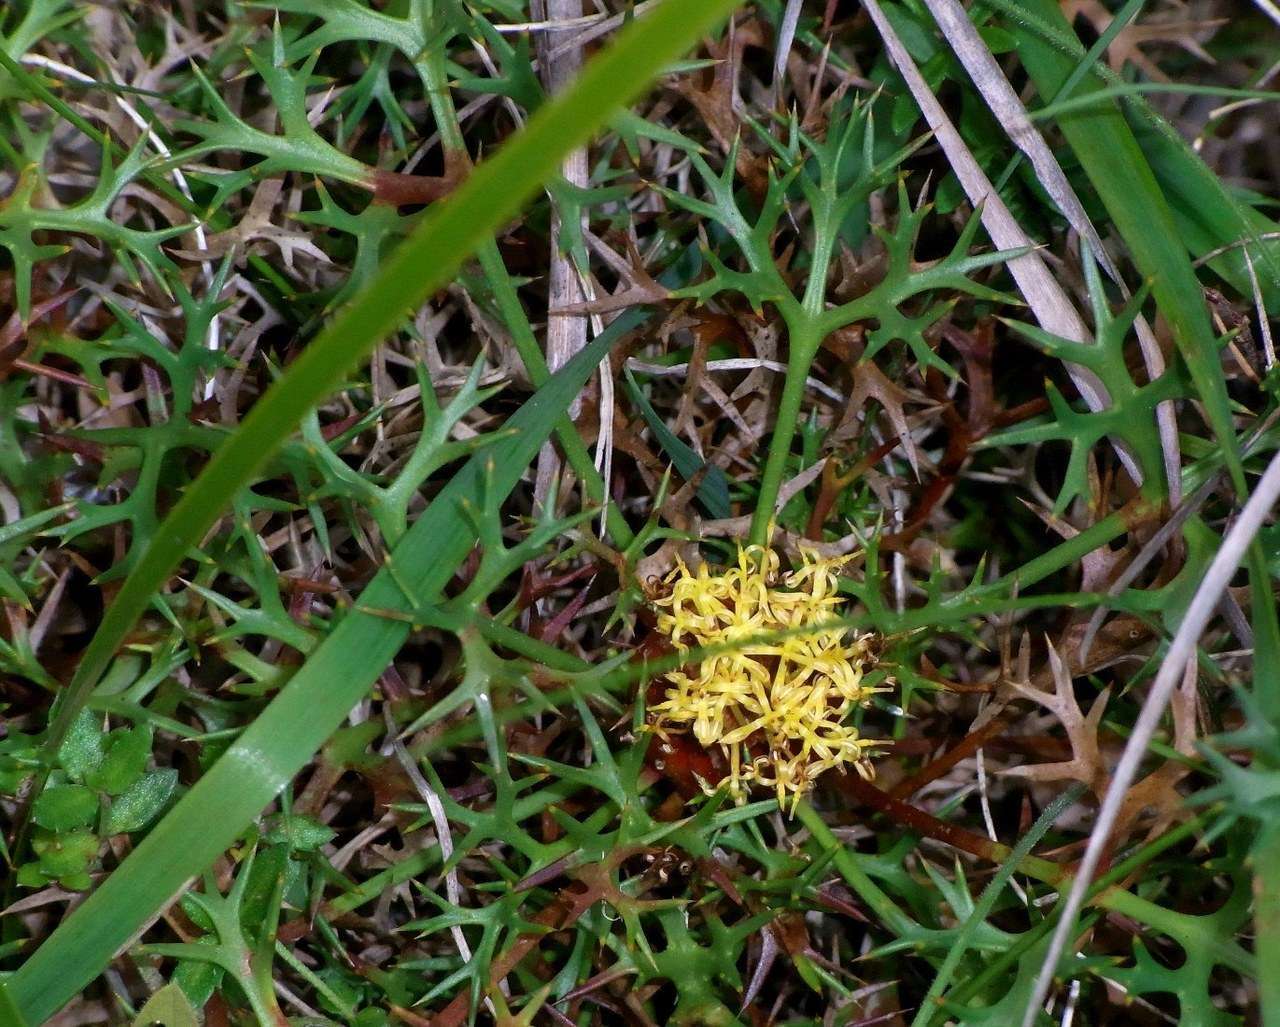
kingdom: Plantae
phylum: Tracheophyta
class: Magnoliopsida
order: Proteales
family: Proteaceae
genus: Isopogon
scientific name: Isopogon ceratophyllus
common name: Horny cone-bush
